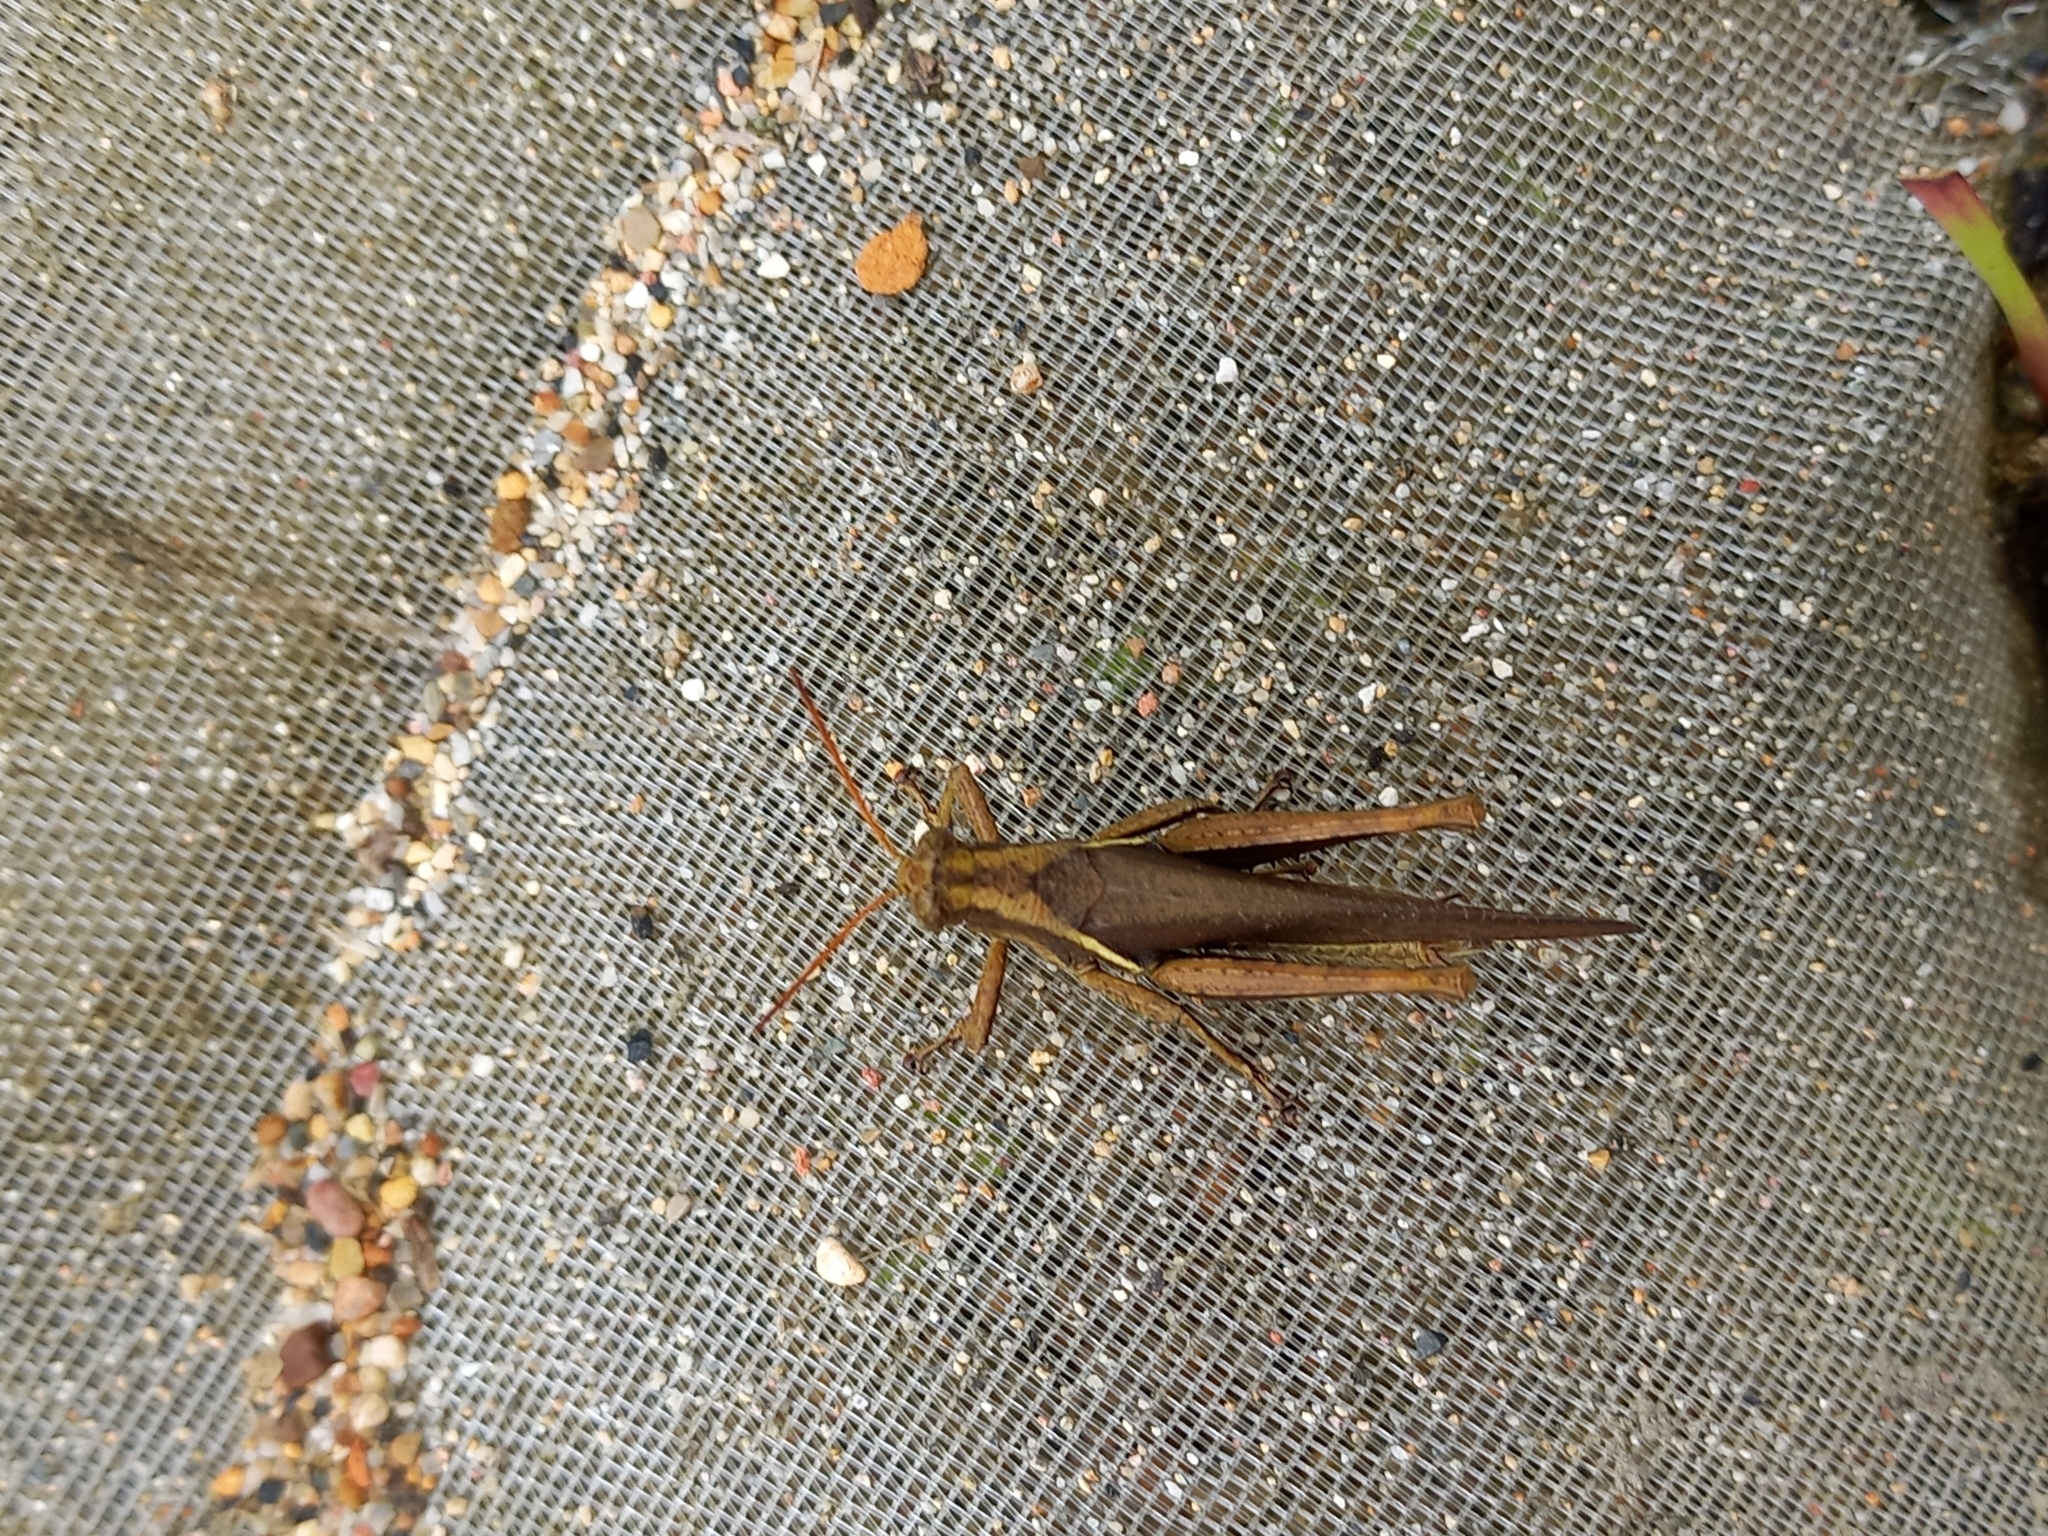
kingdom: Animalia
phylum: Arthropoda
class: Insecta
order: Orthoptera
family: Acrididae
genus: Abracris
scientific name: Abracris flavolineata
